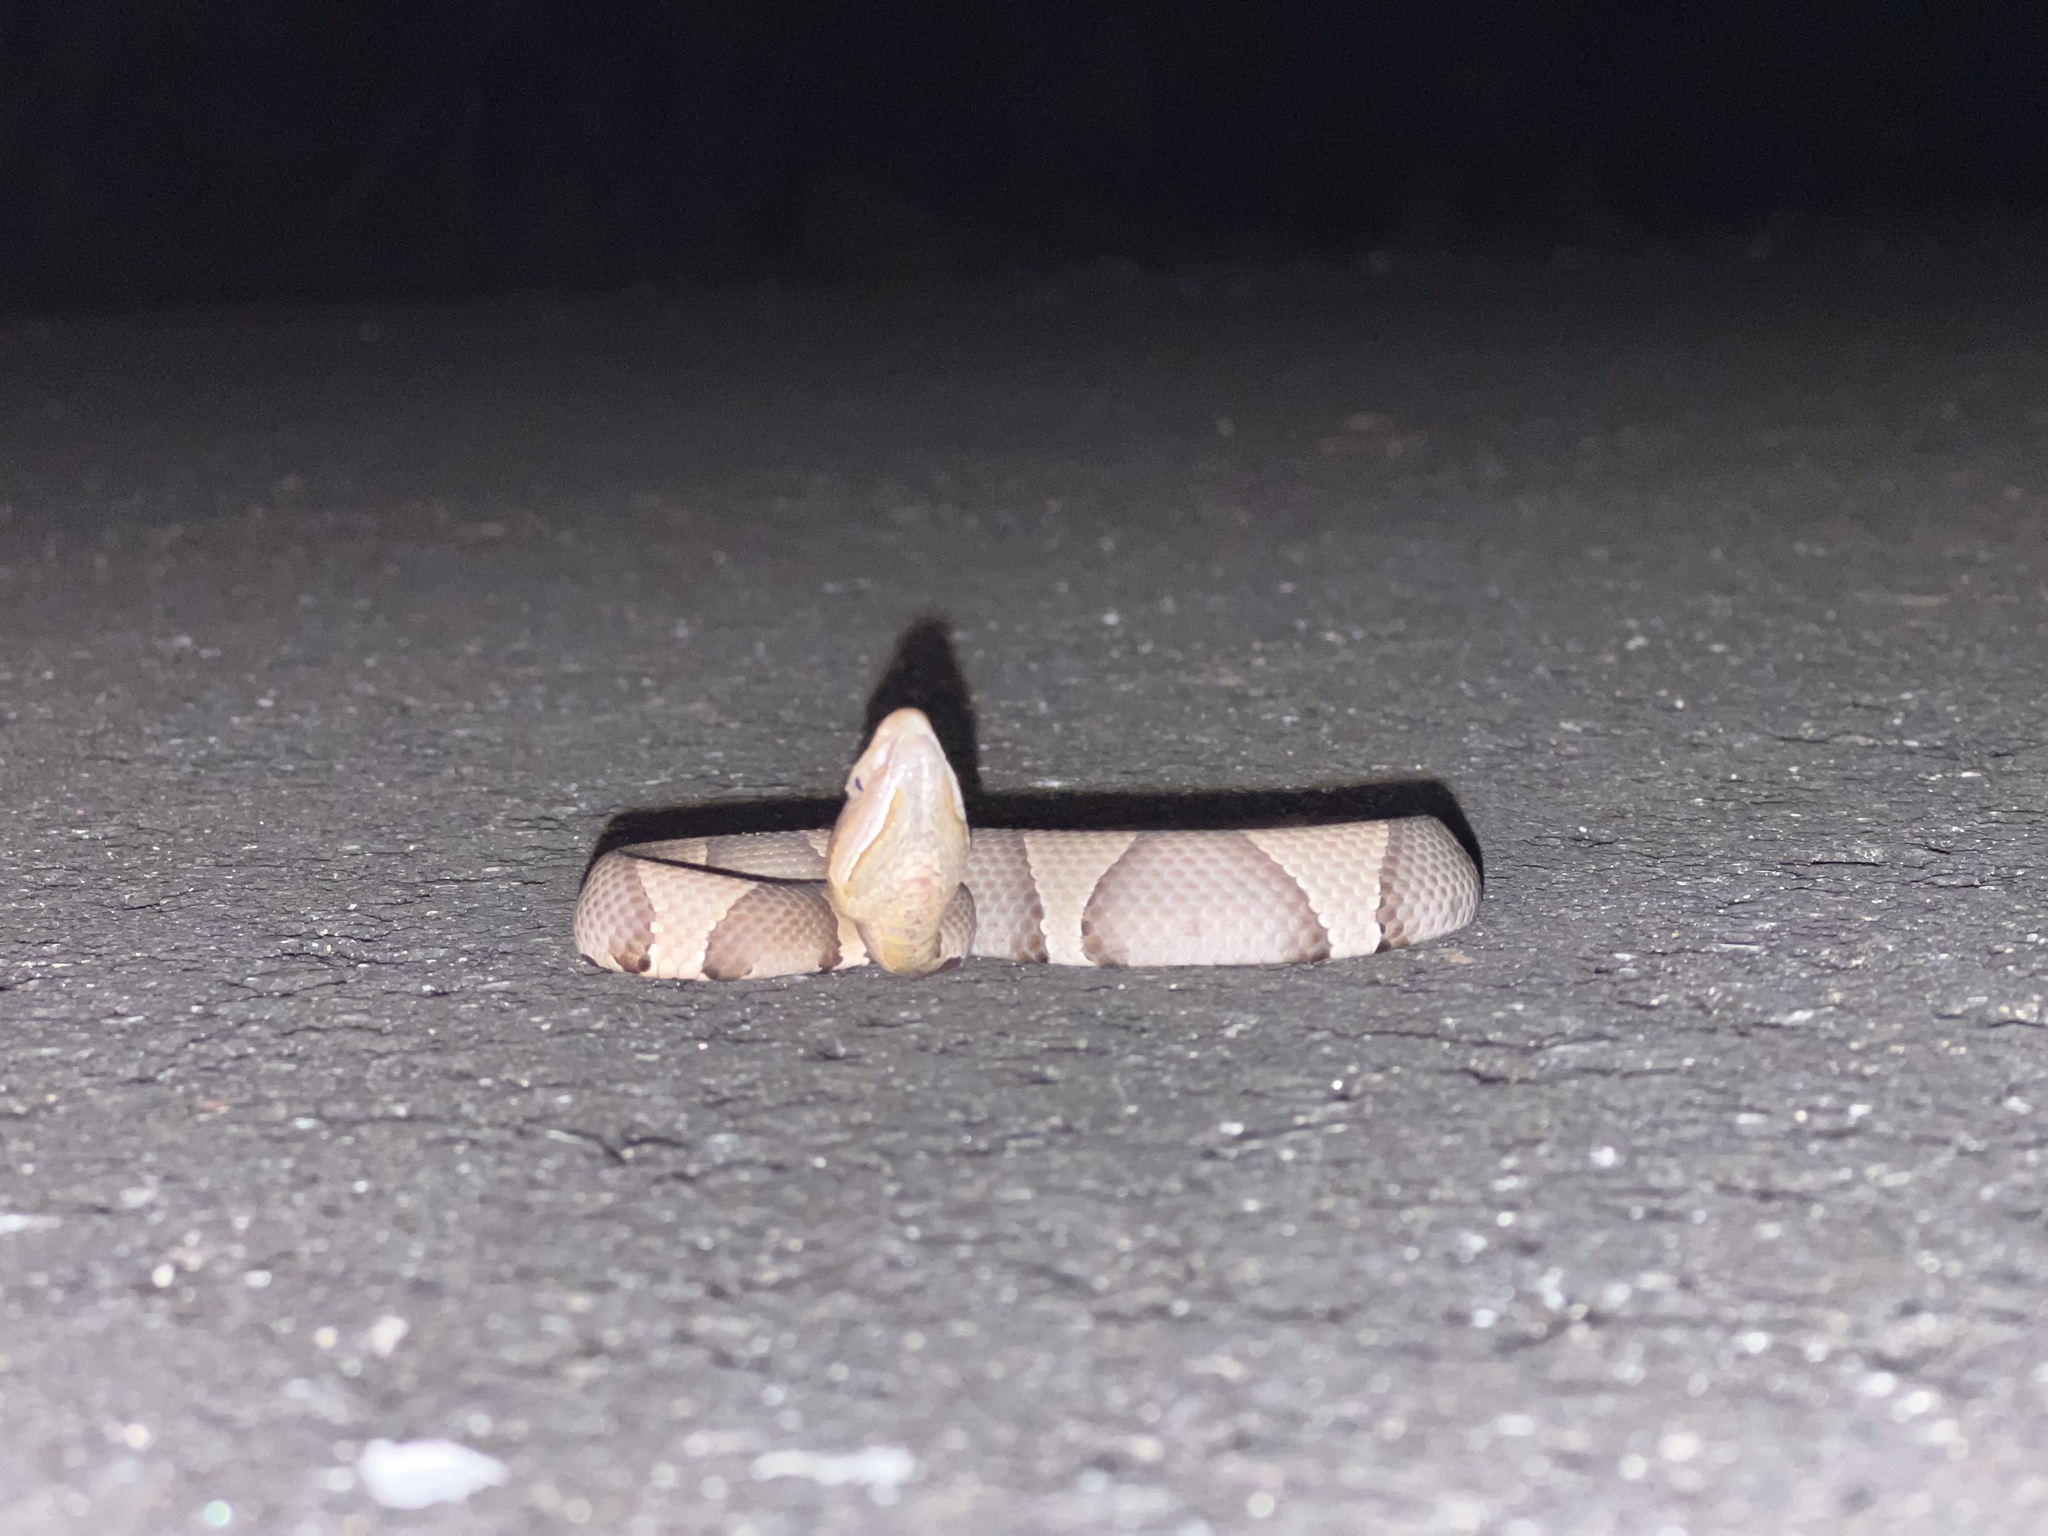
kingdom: Animalia
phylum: Chordata
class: Squamata
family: Viperidae
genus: Agkistrodon
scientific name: Agkistrodon laticinctus
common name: Broad-banded copperhead
